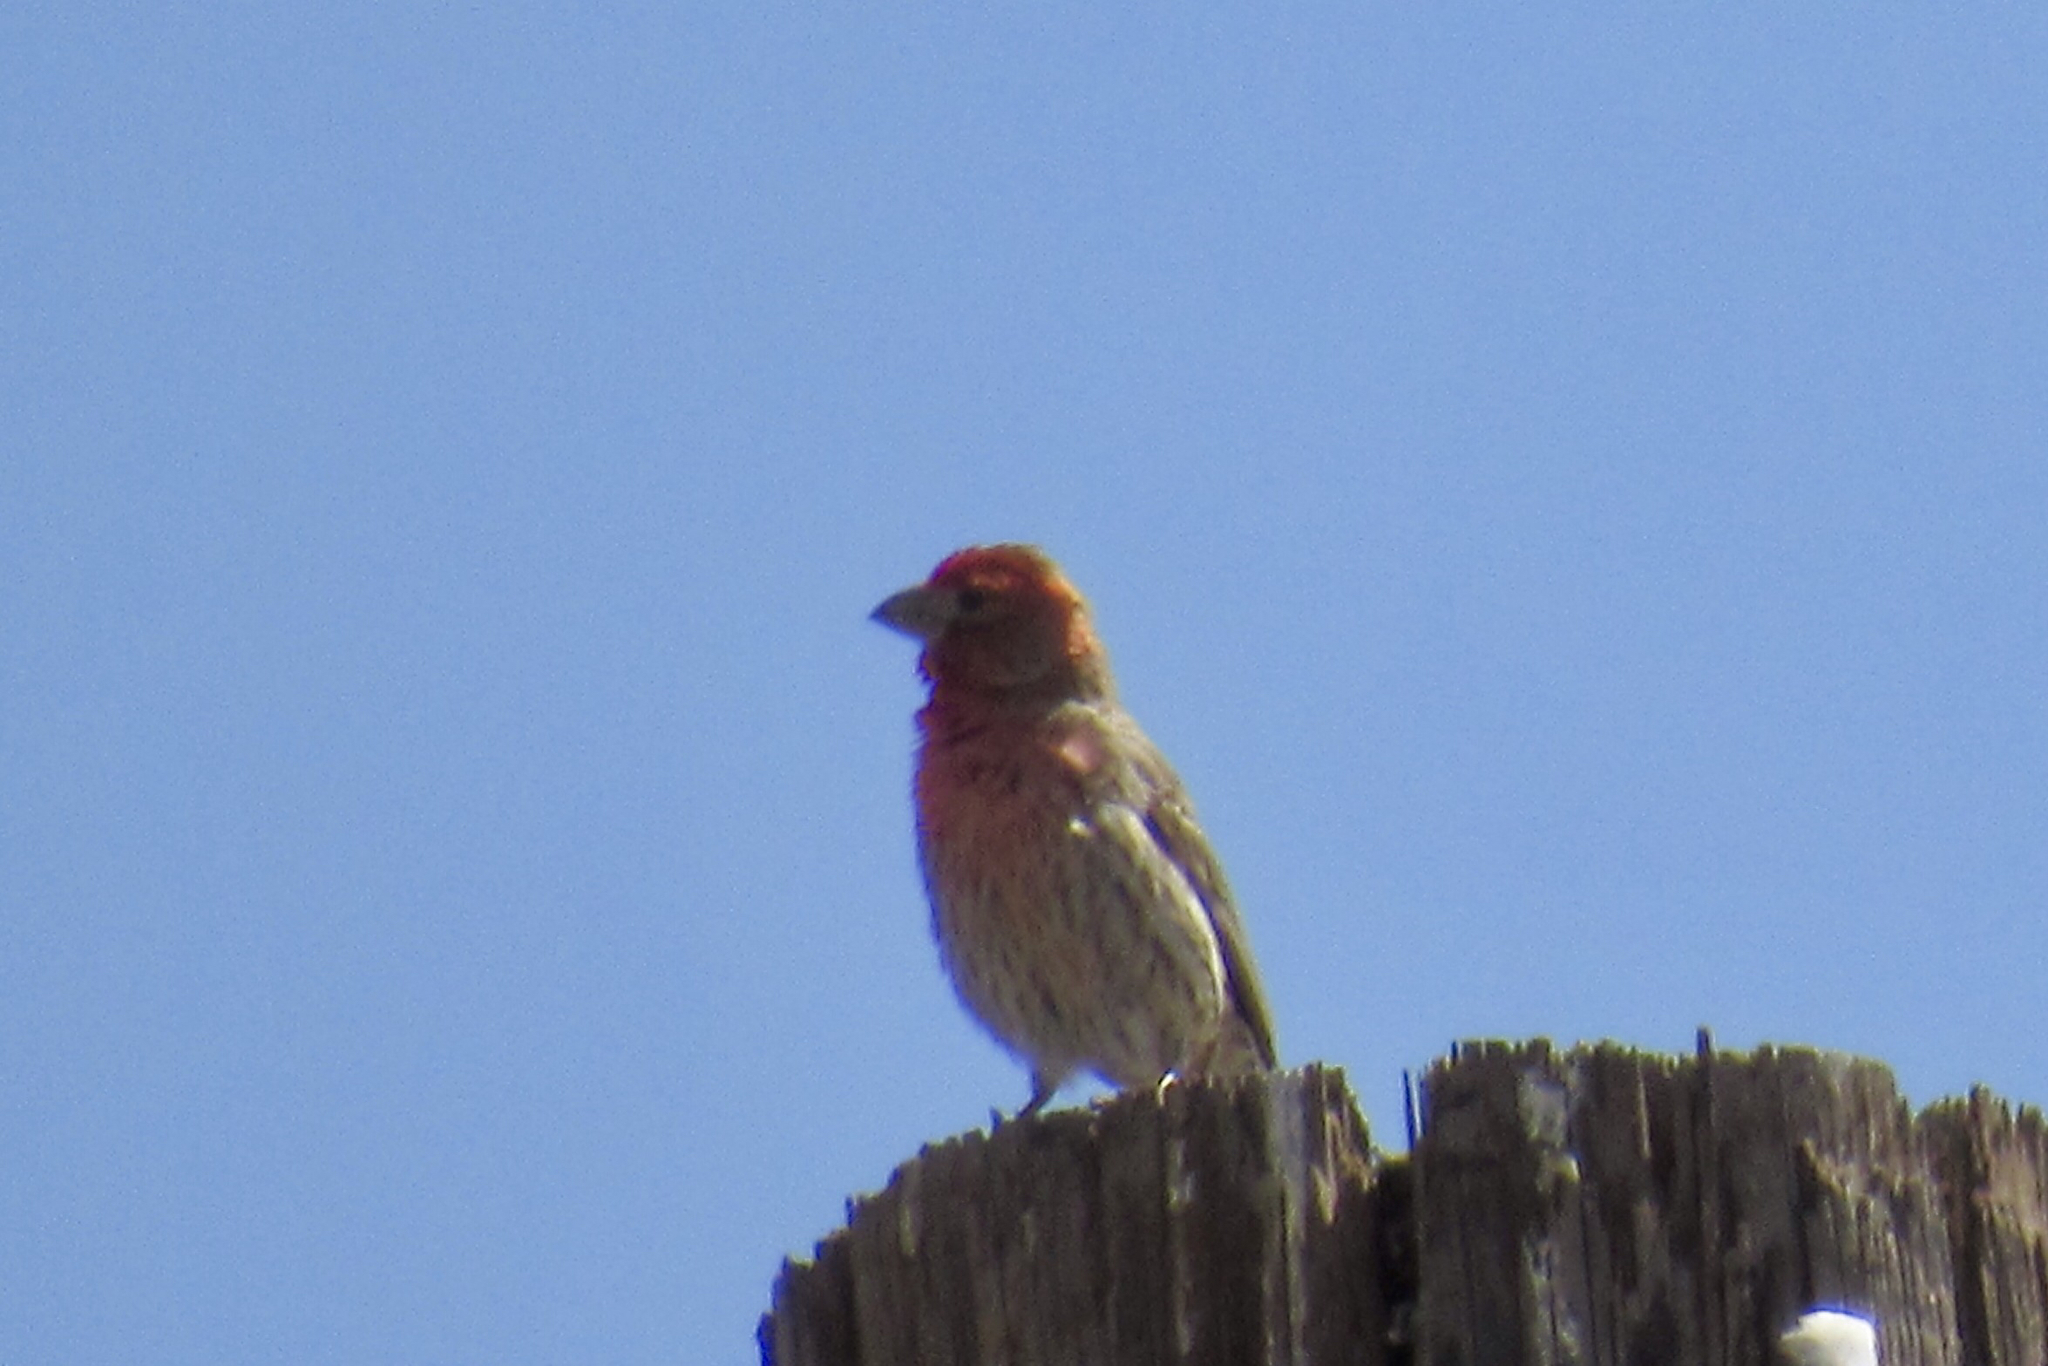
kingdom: Animalia
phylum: Chordata
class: Aves
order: Passeriformes
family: Fringillidae
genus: Haemorhous
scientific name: Haemorhous mexicanus
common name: House finch
